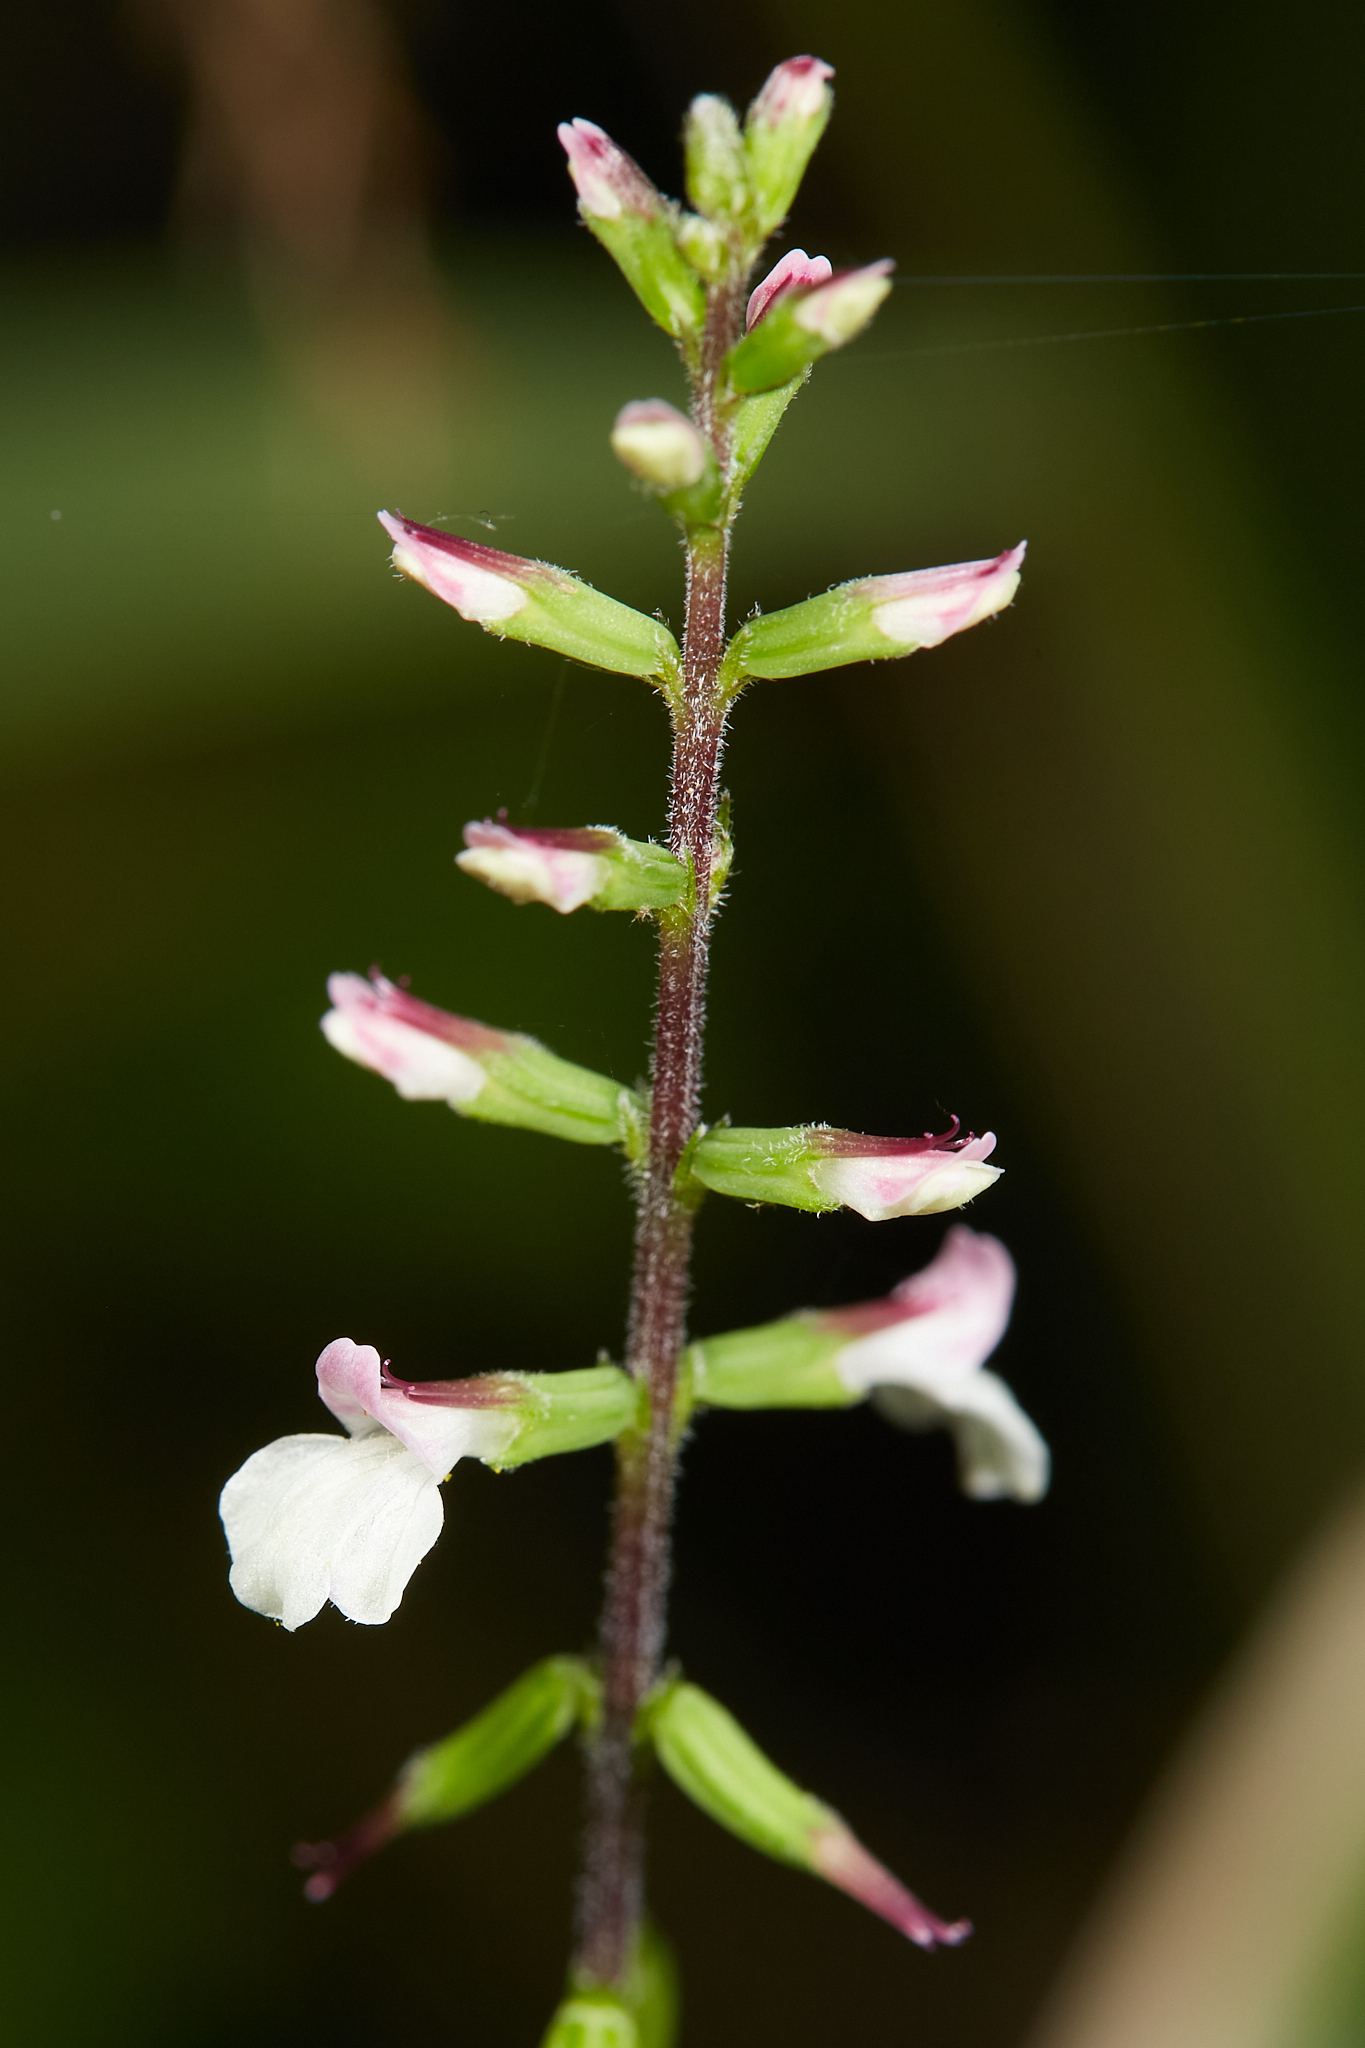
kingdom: Plantae
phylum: Tracheophyta
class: Magnoliopsida
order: Lamiales
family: Phrymaceae
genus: Phryma
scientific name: Phryma leptostachya
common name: American lopseed
